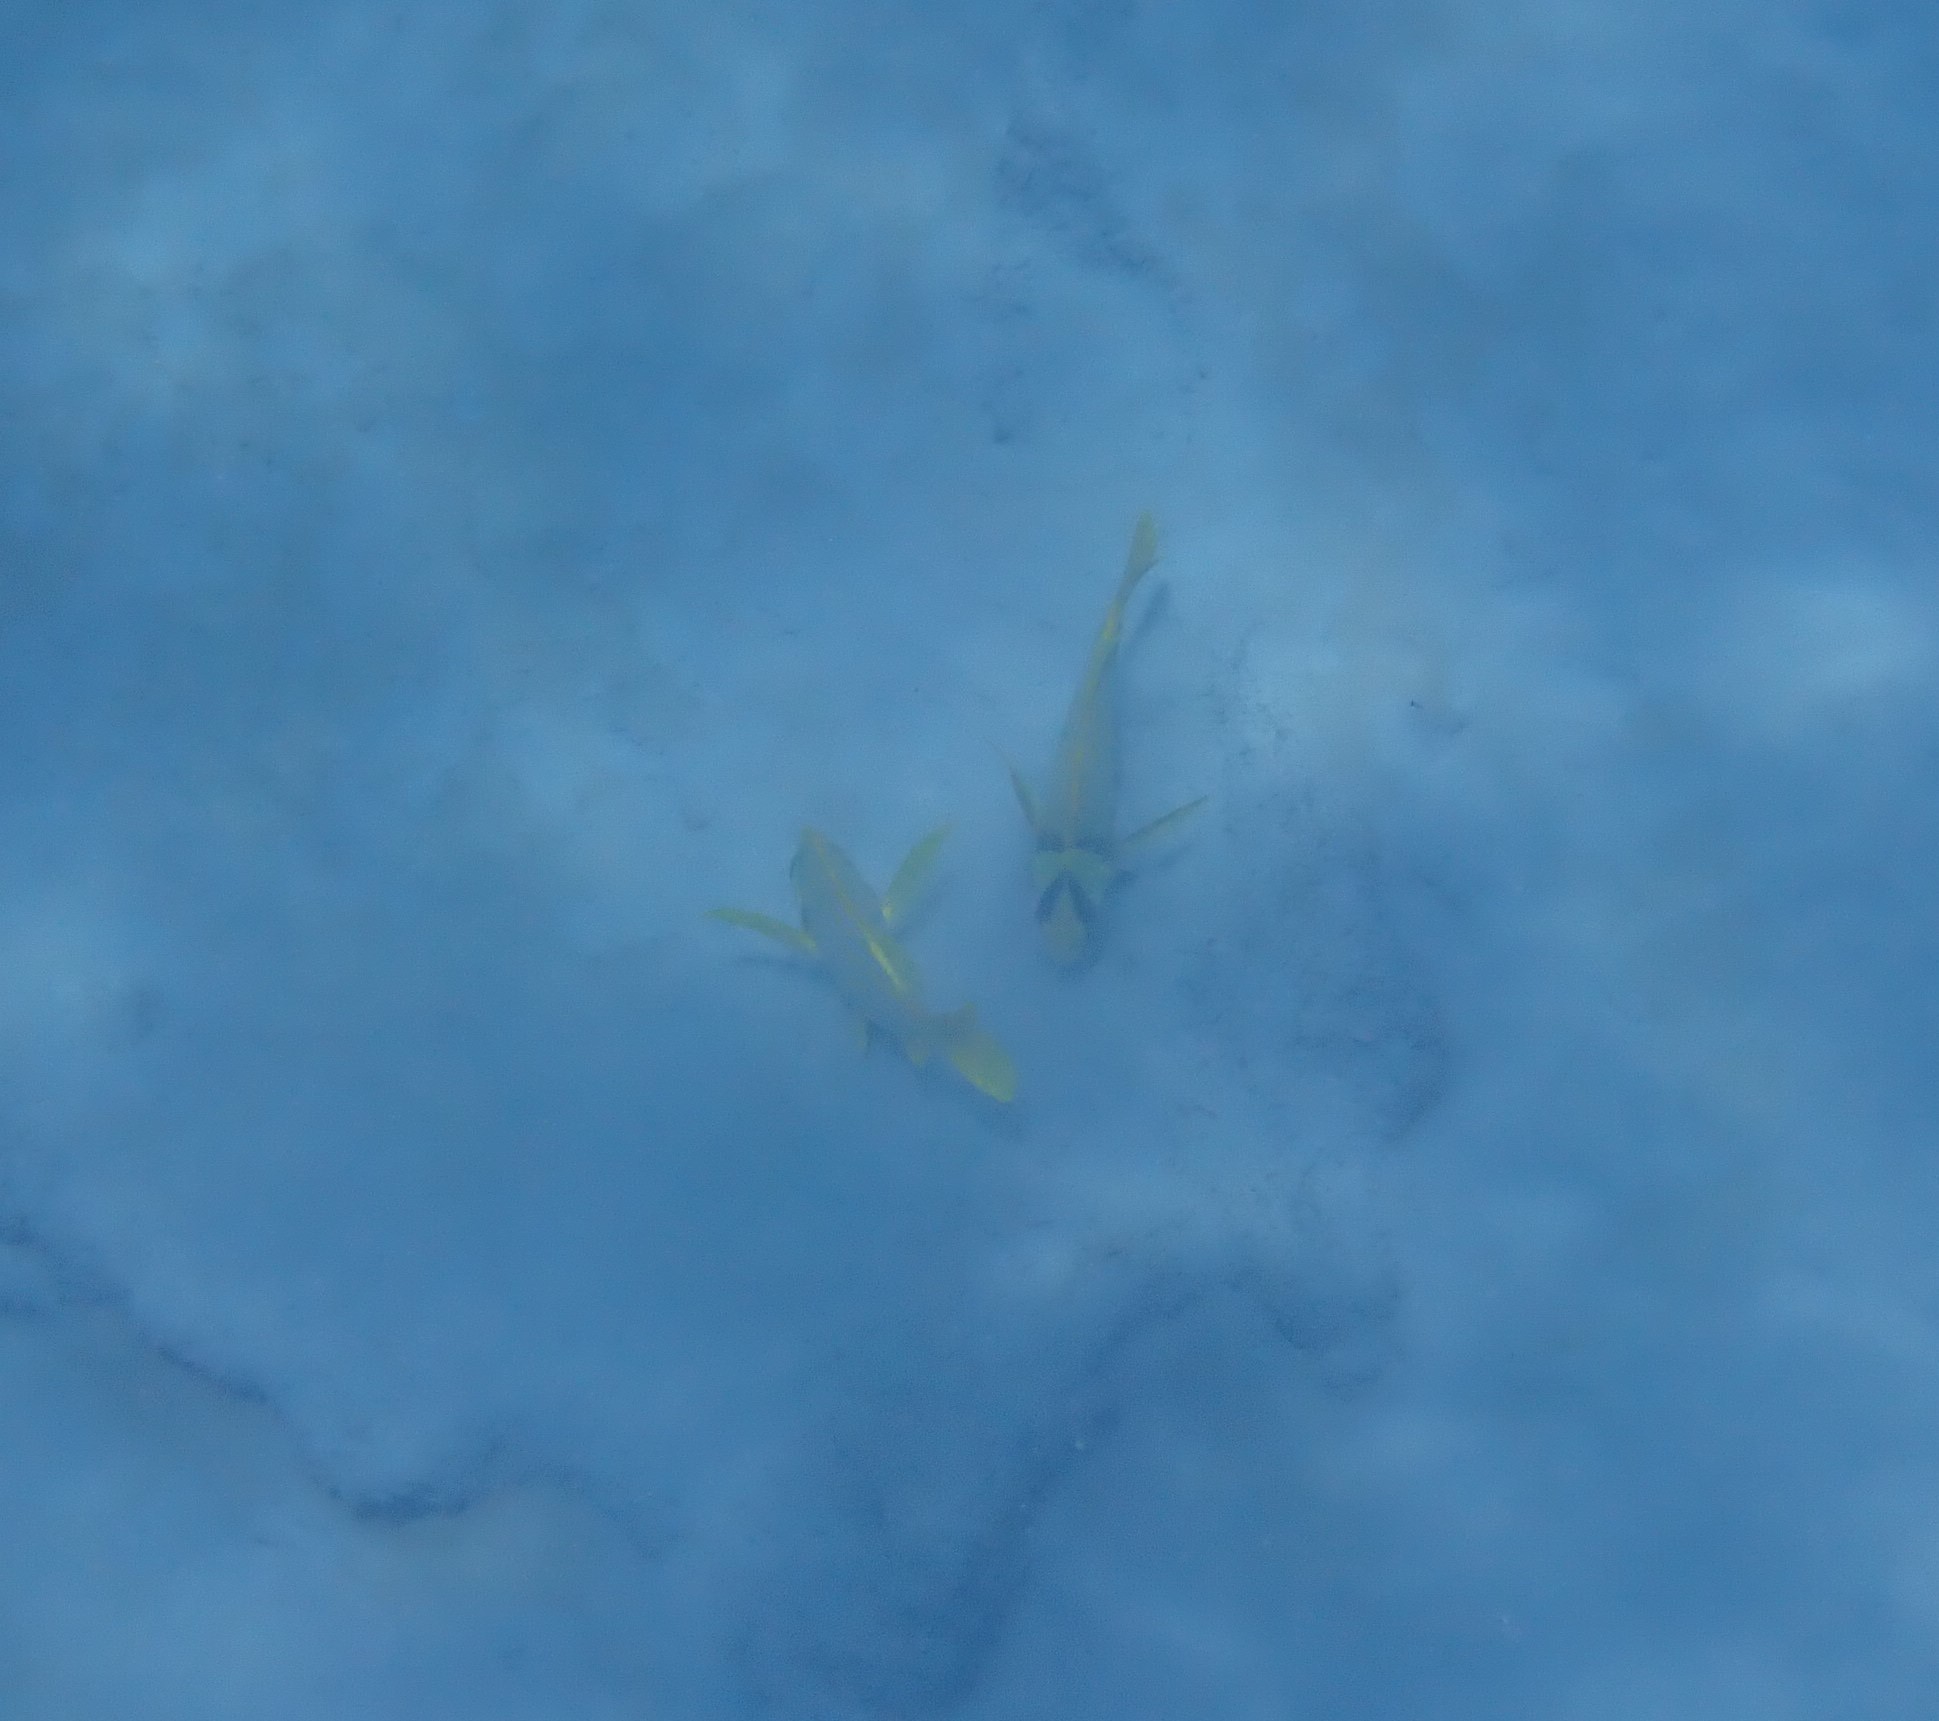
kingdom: Animalia
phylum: Chordata
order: Perciformes
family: Haemulidae
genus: Anisotremus
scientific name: Anisotremus taeniatus
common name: Catalina
